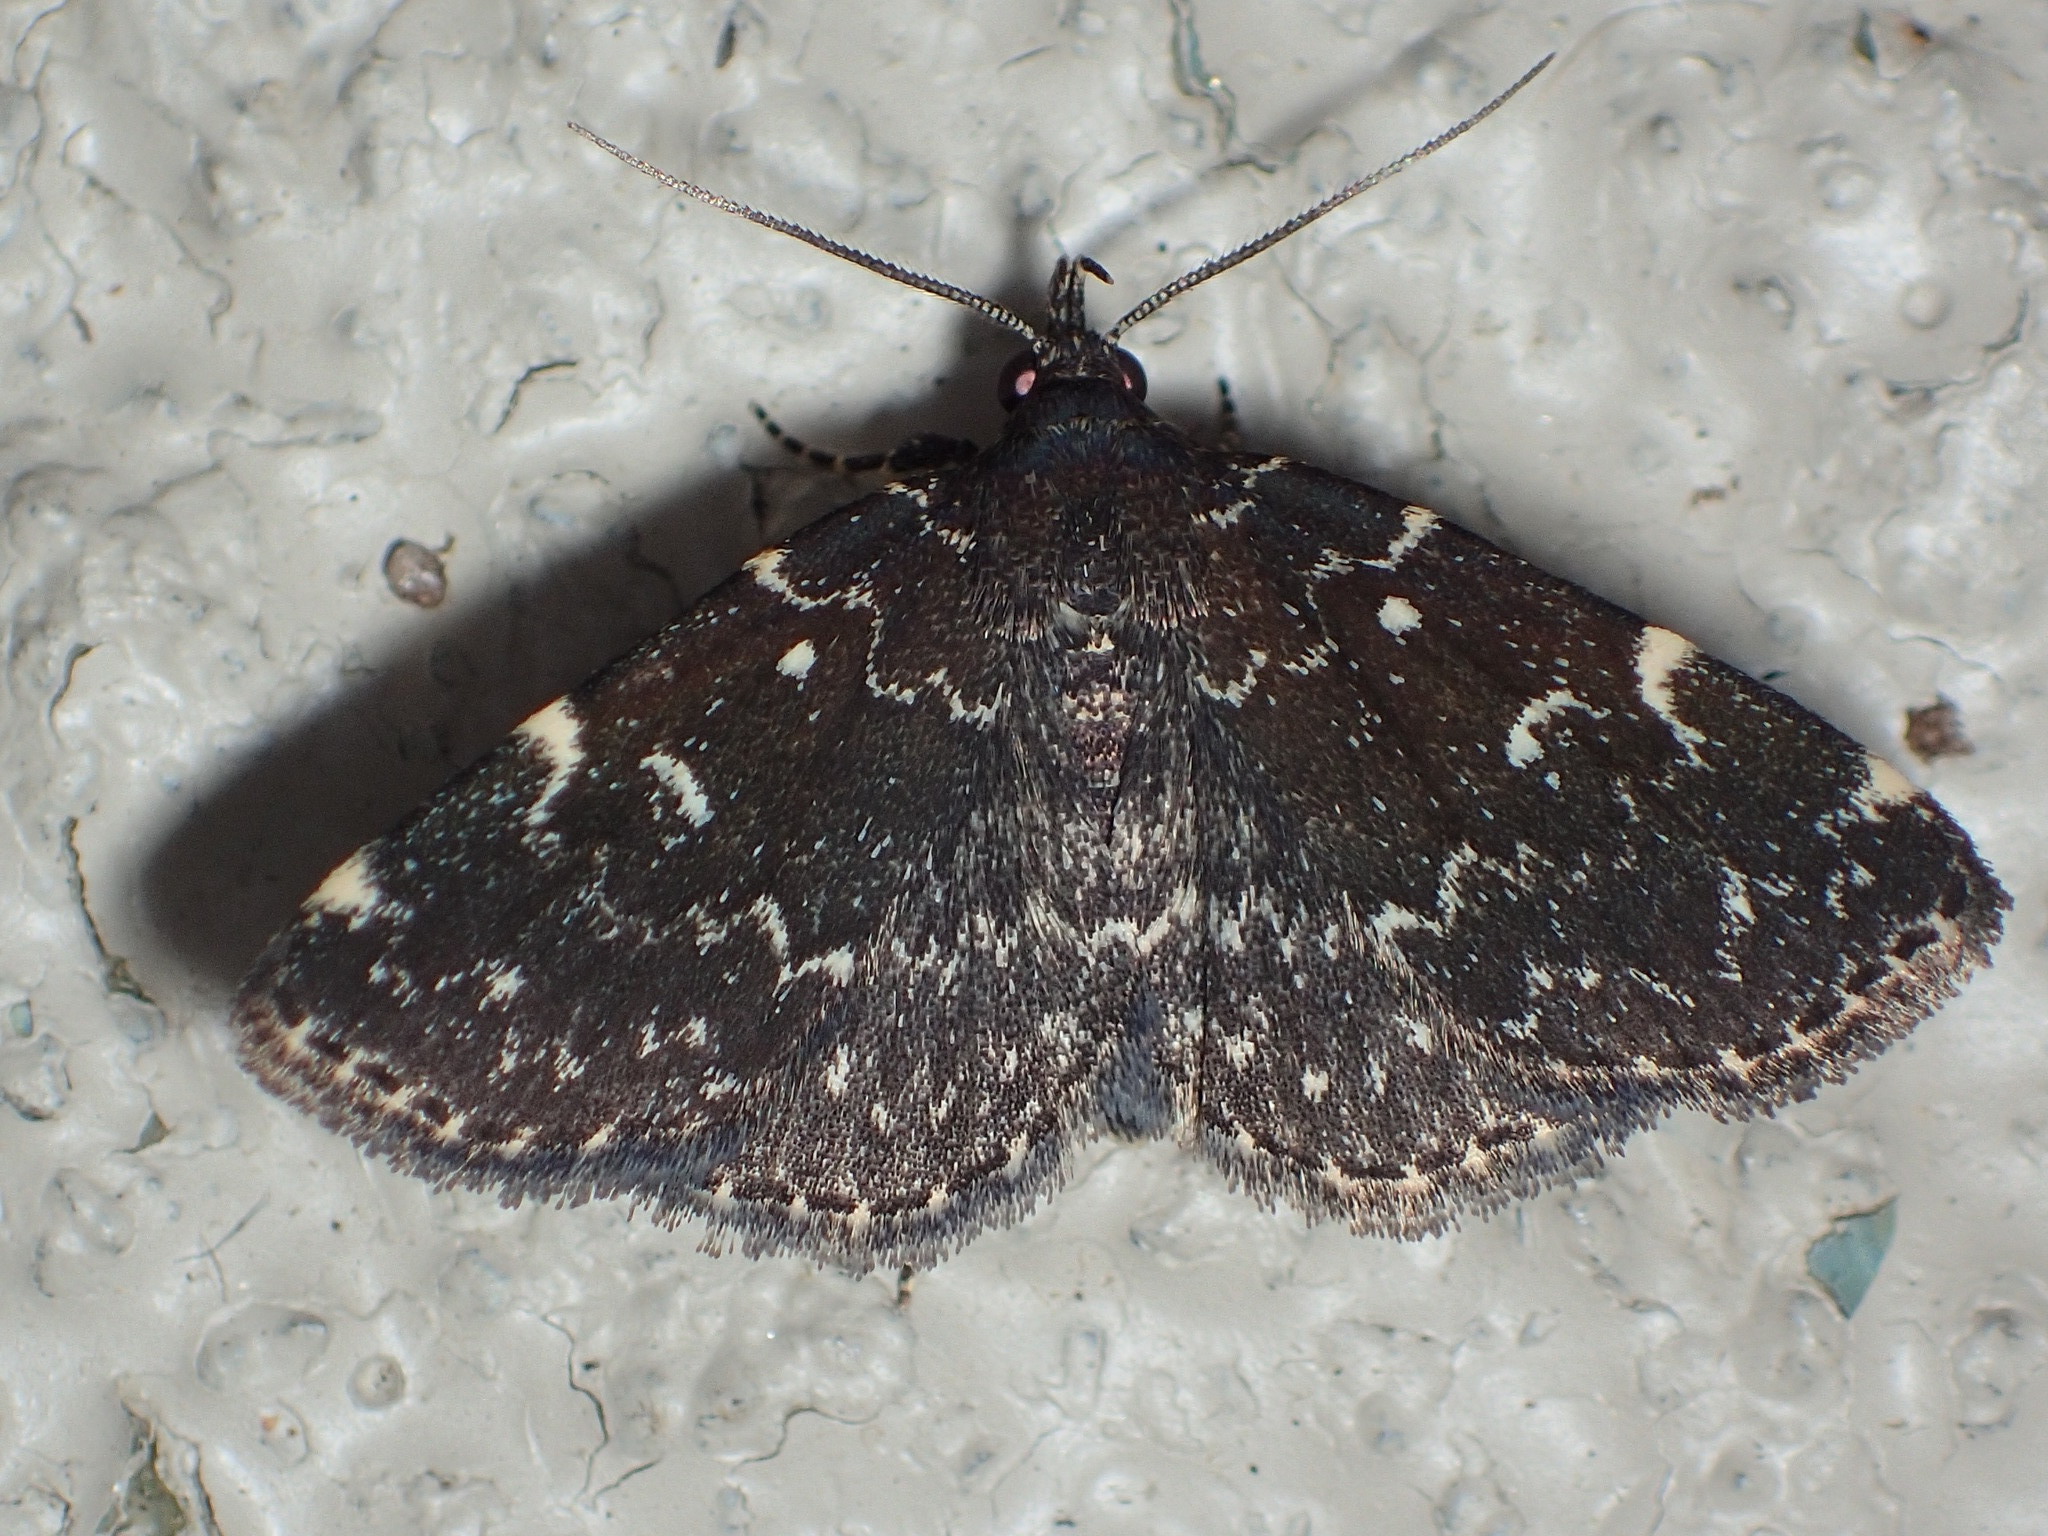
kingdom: Animalia
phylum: Arthropoda
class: Insecta
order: Lepidoptera
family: Erebidae
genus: Idia
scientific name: Idia scobialis
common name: Smoky idia moth
